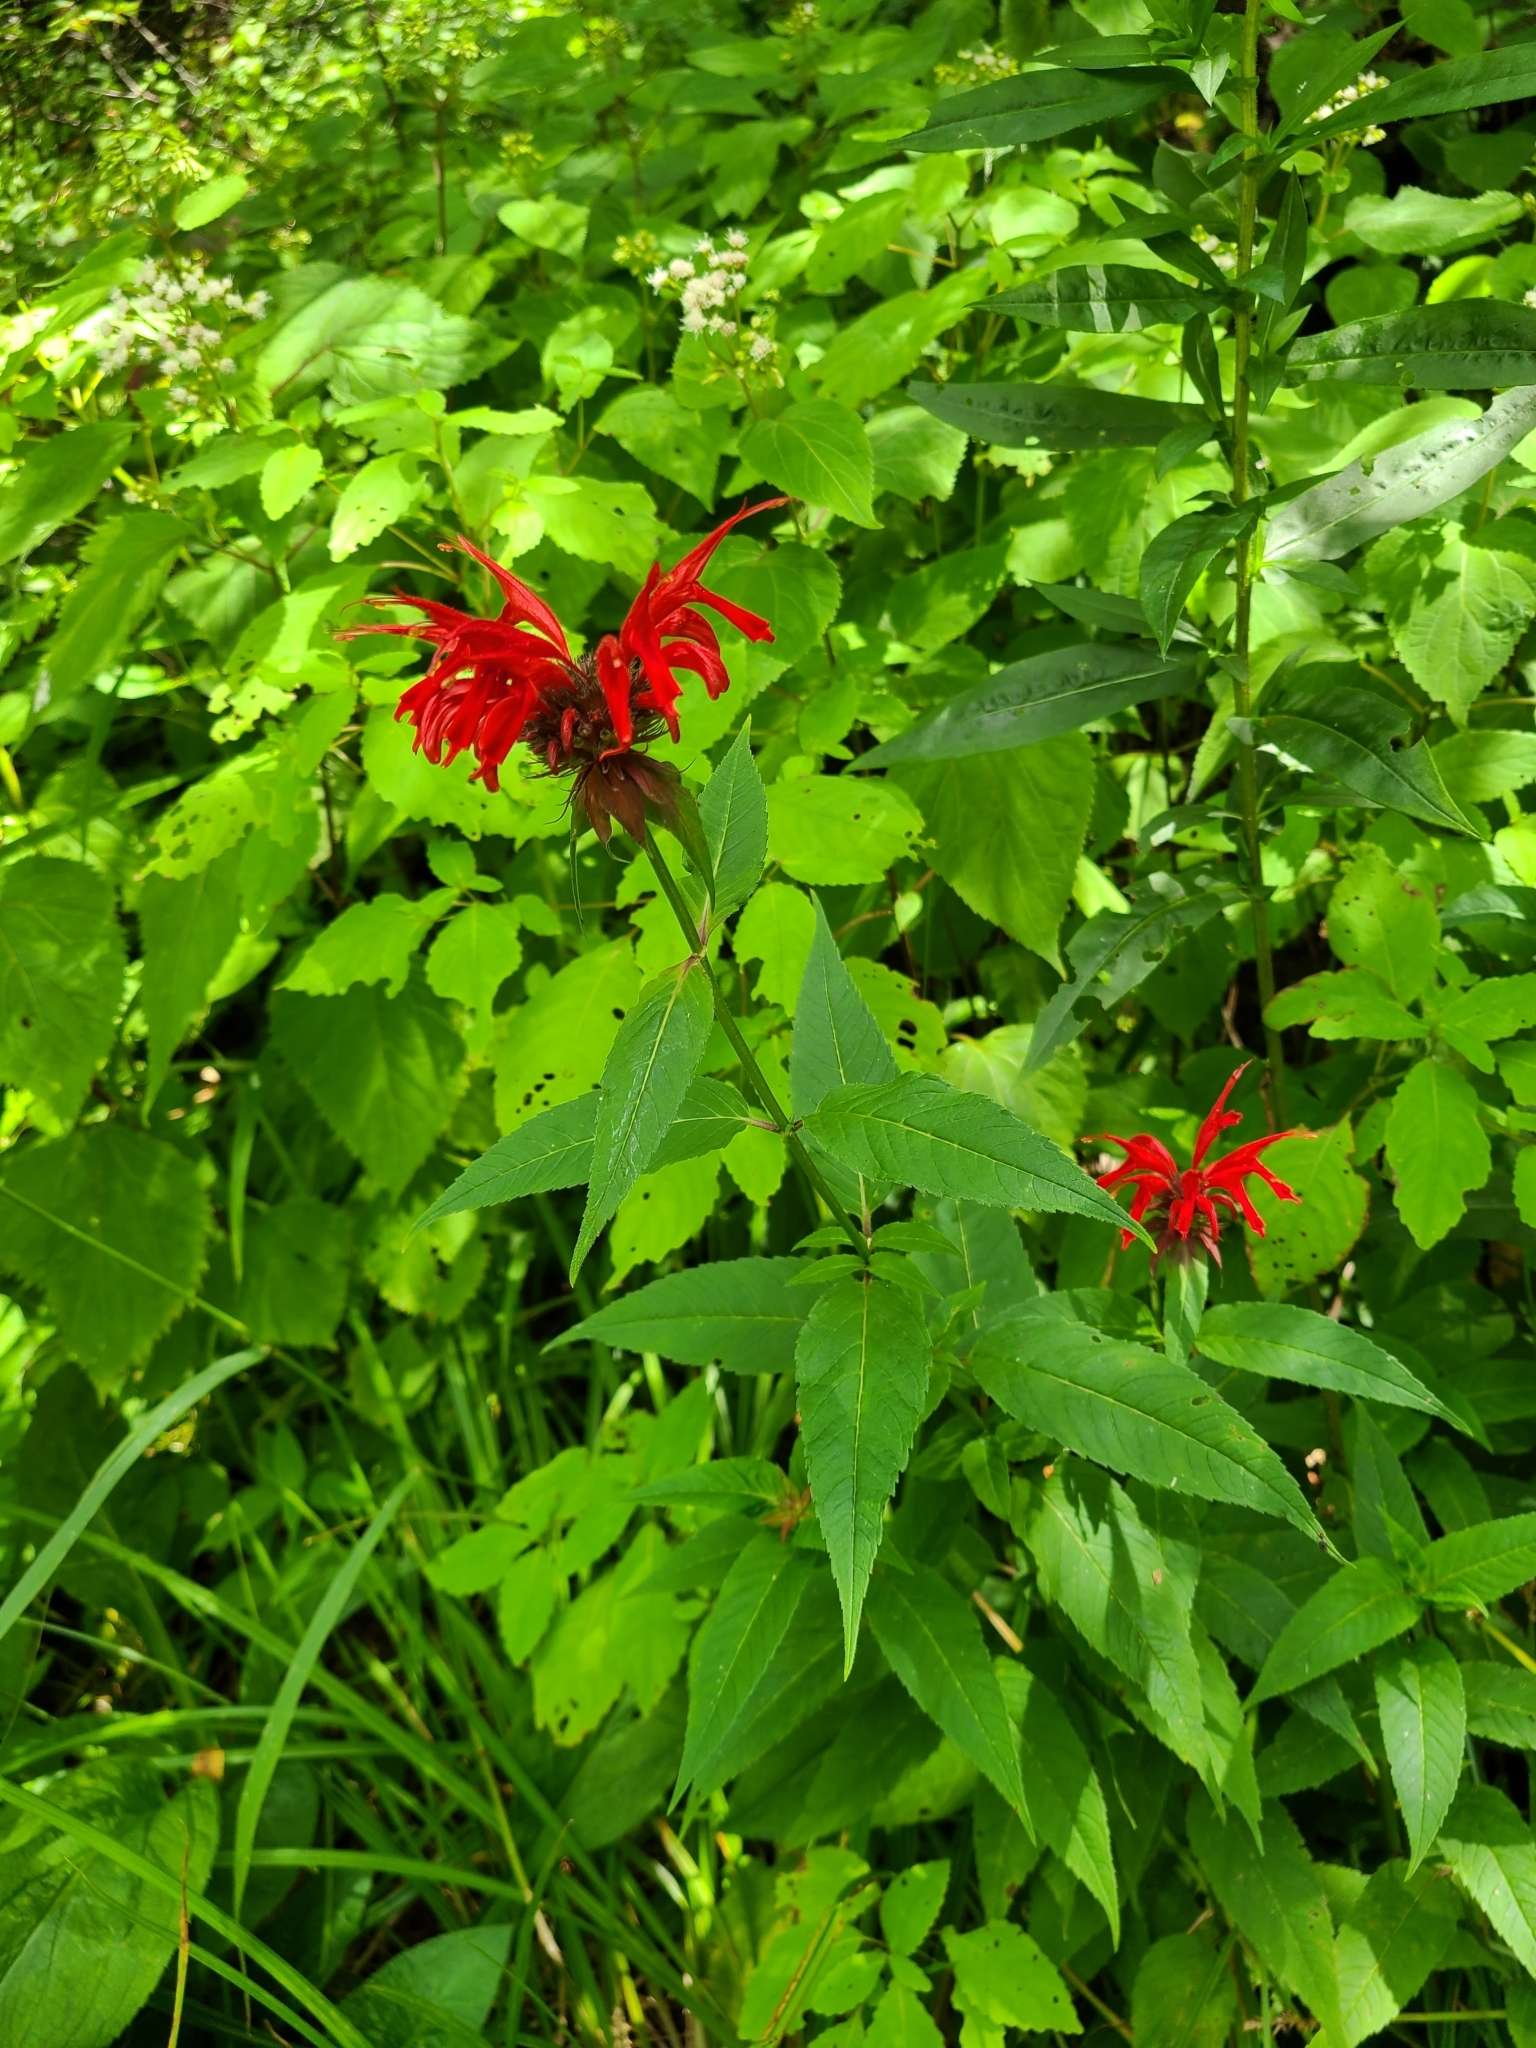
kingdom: Plantae
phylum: Tracheophyta
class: Magnoliopsida
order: Lamiales
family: Lamiaceae
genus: Monarda
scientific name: Monarda didyma
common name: Beebalm
